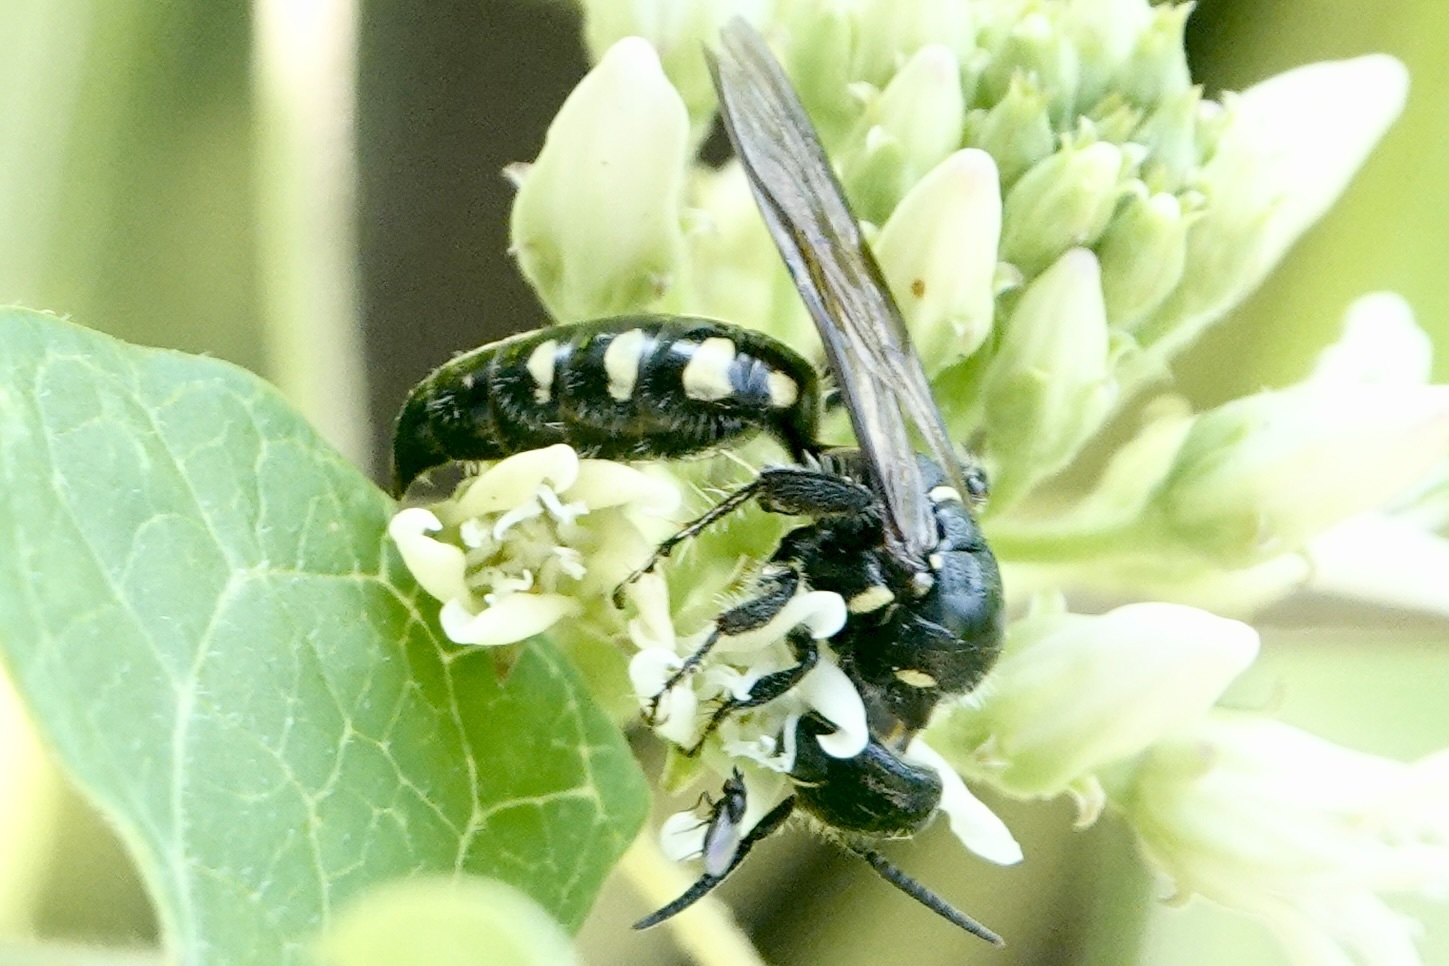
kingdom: Animalia
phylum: Arthropoda
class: Insecta
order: Hymenoptera
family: Tiphiidae
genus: Myzinum
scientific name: Myzinum obscurum
